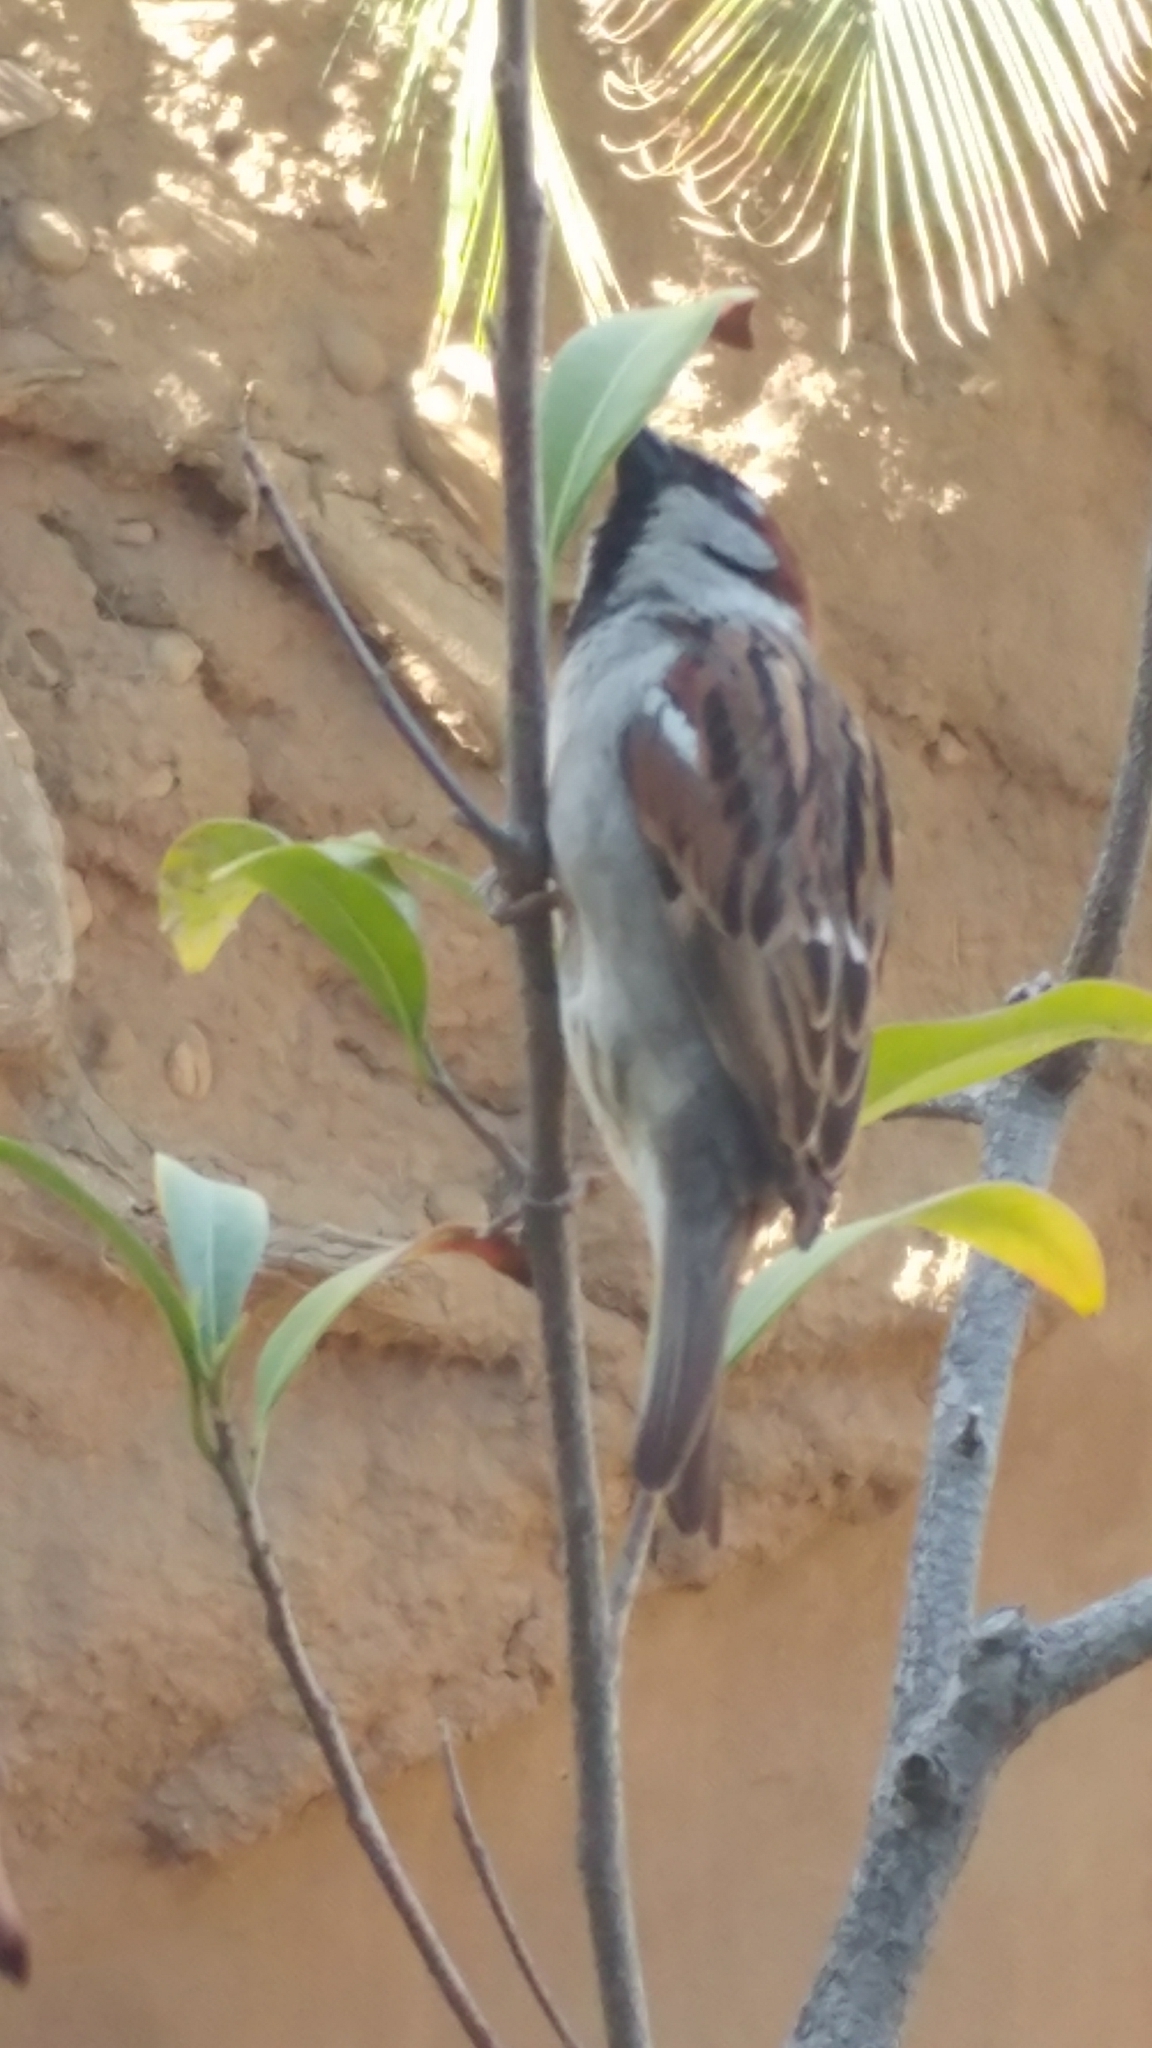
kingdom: Animalia
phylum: Chordata
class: Aves
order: Passeriformes
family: Passeridae
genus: Passer
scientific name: Passer domesticus
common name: House sparrow
